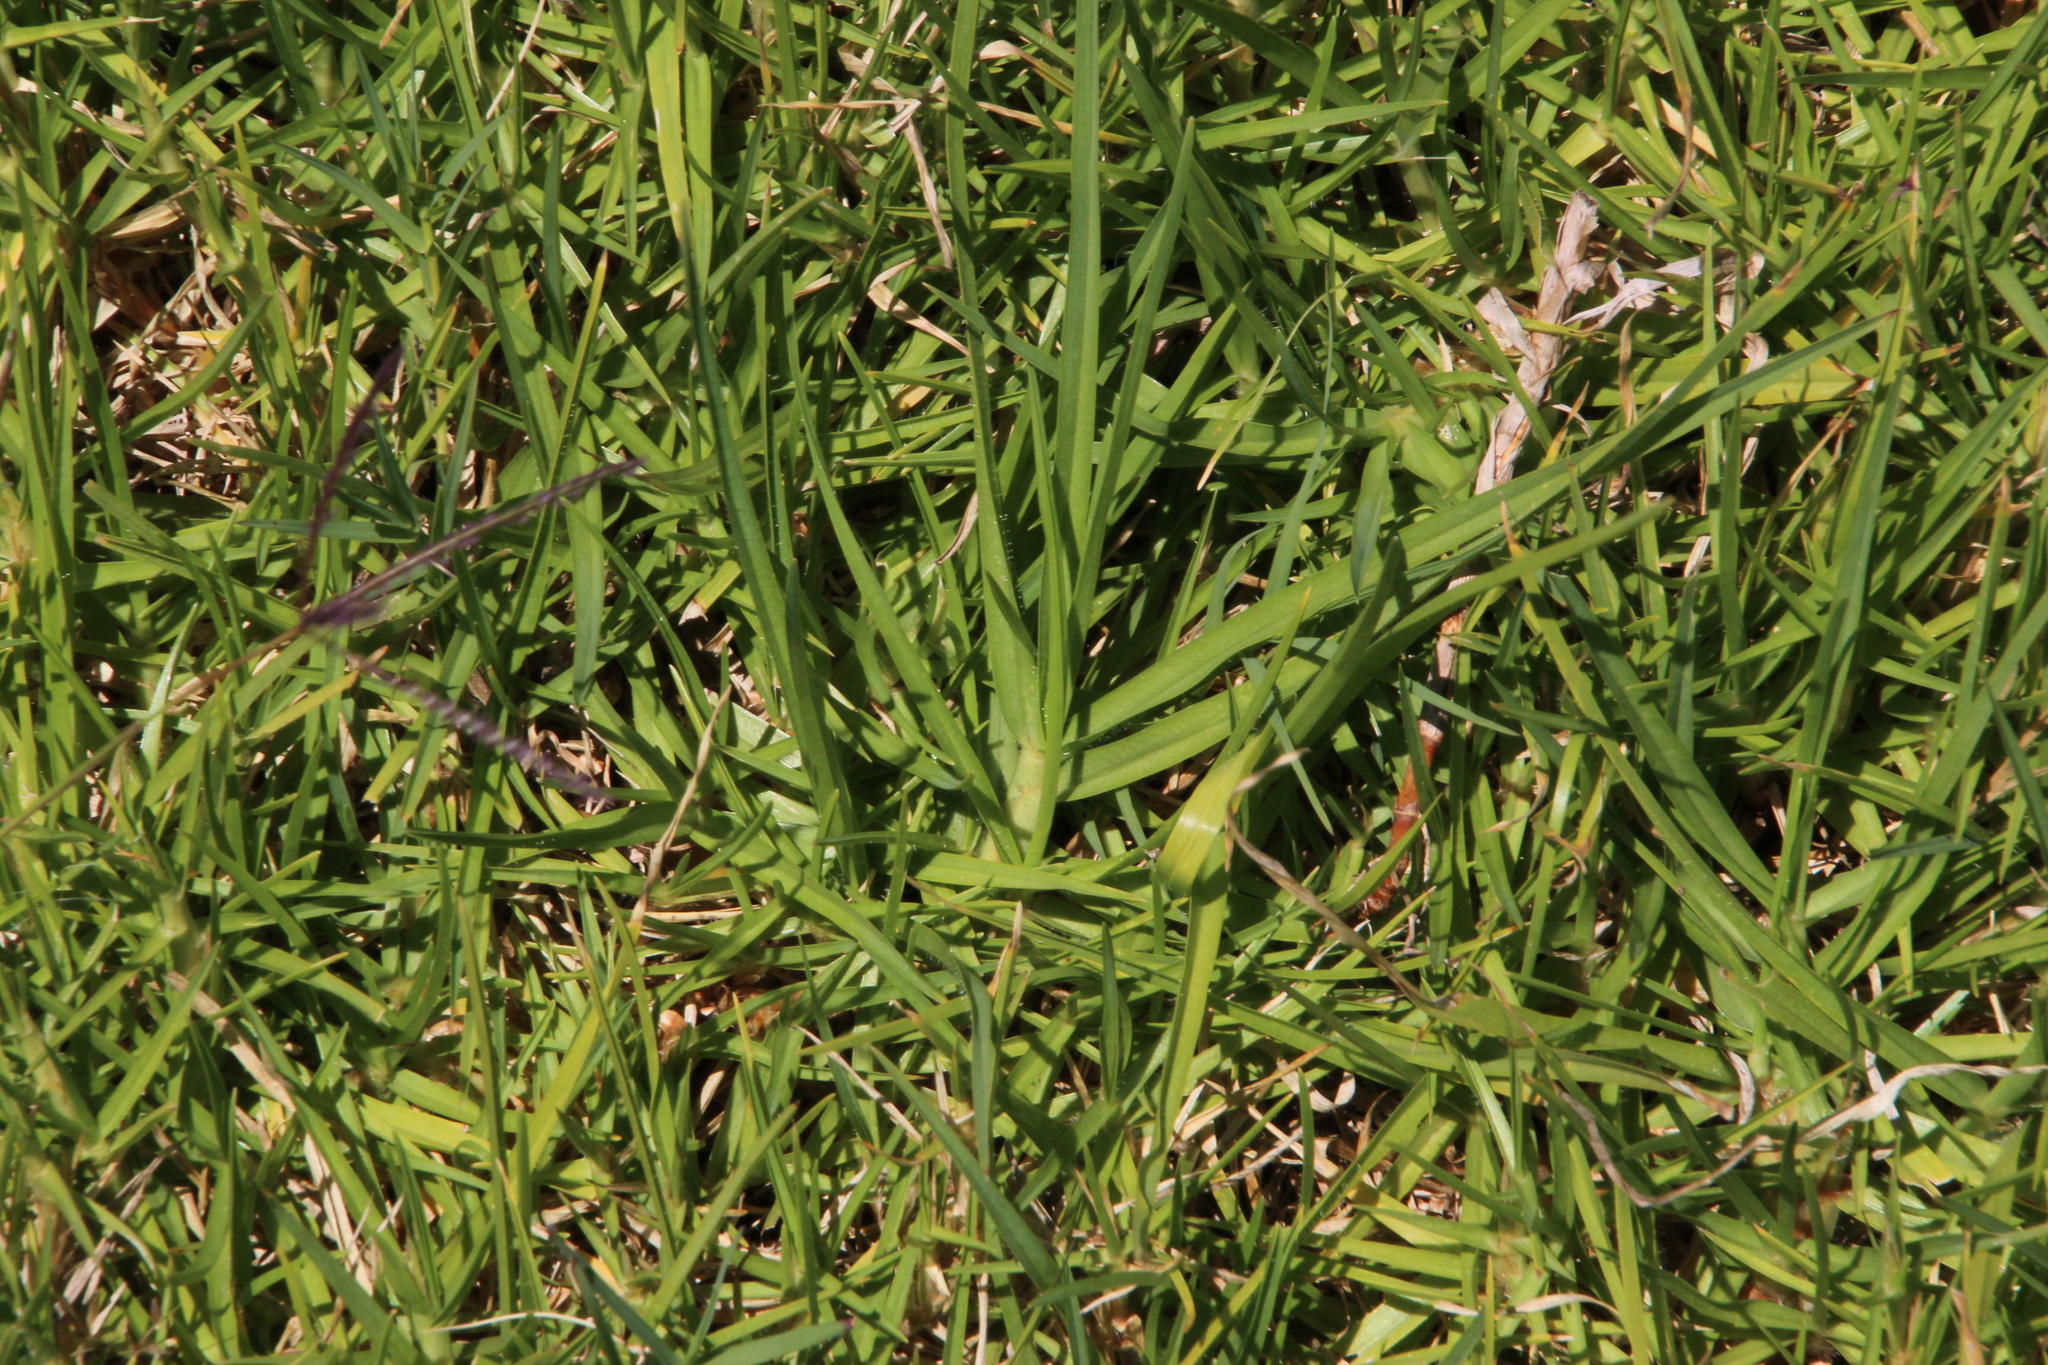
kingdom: Plantae
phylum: Tracheophyta
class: Liliopsida
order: Poales
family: Poaceae
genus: Cenchrus
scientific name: Cenchrus clandestinus
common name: Kikuyugrass
